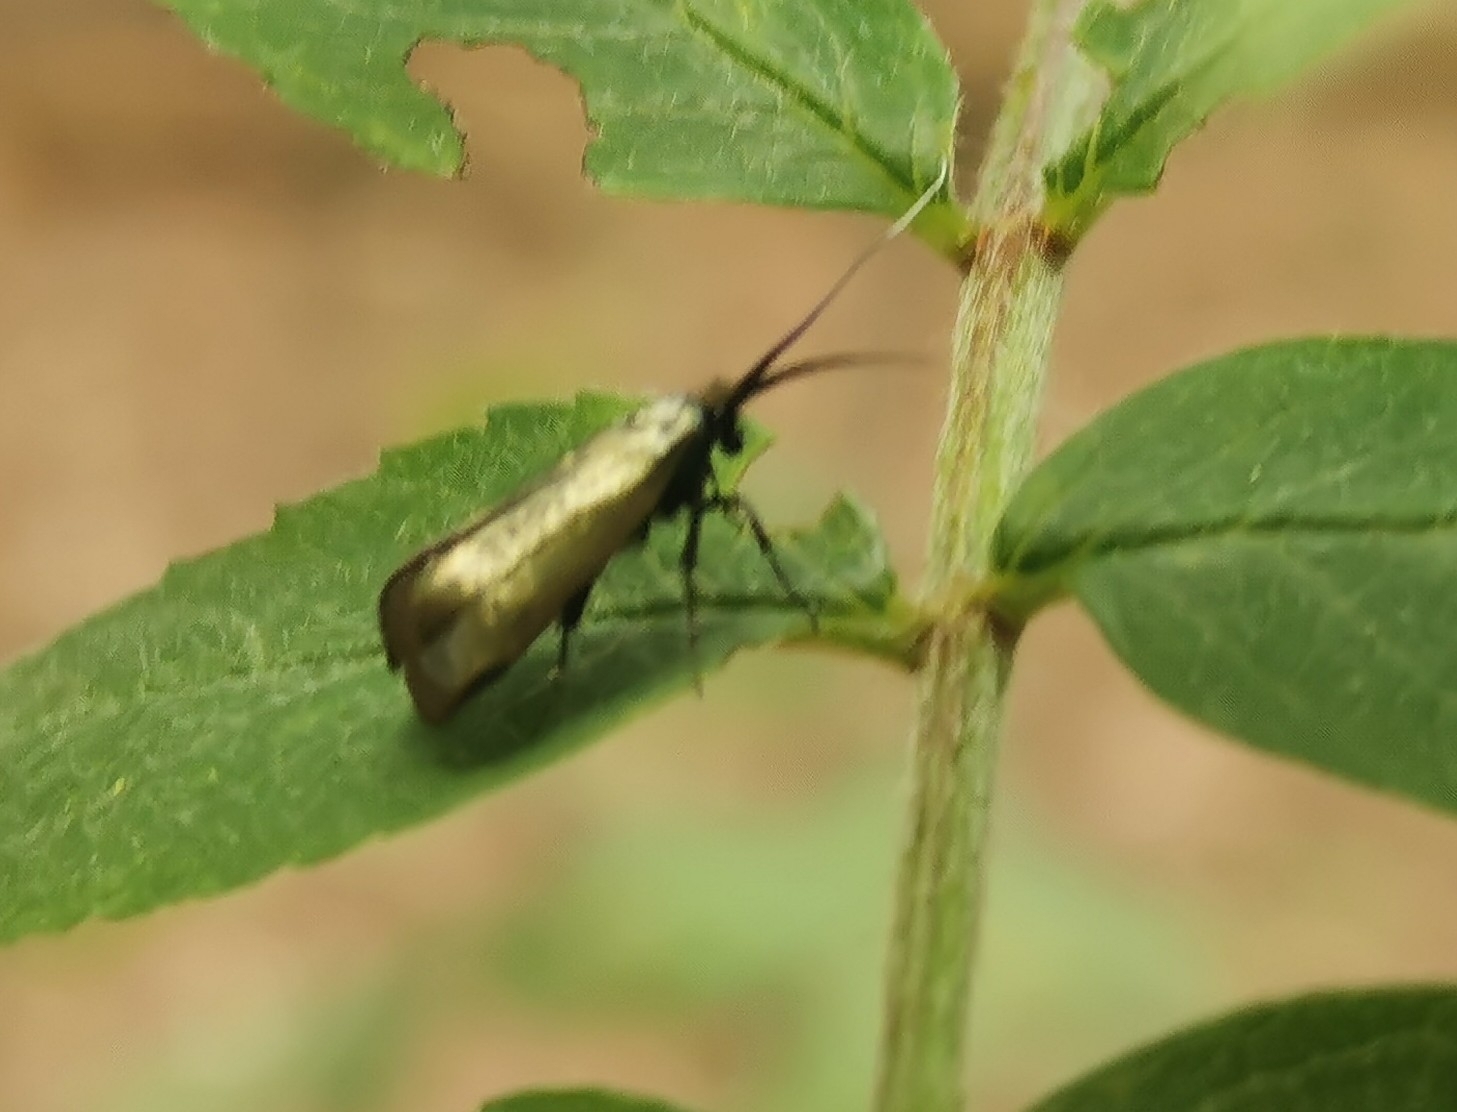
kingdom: Animalia
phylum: Arthropoda
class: Insecta
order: Lepidoptera
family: Adelidae
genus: Adela
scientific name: Adela viridella
